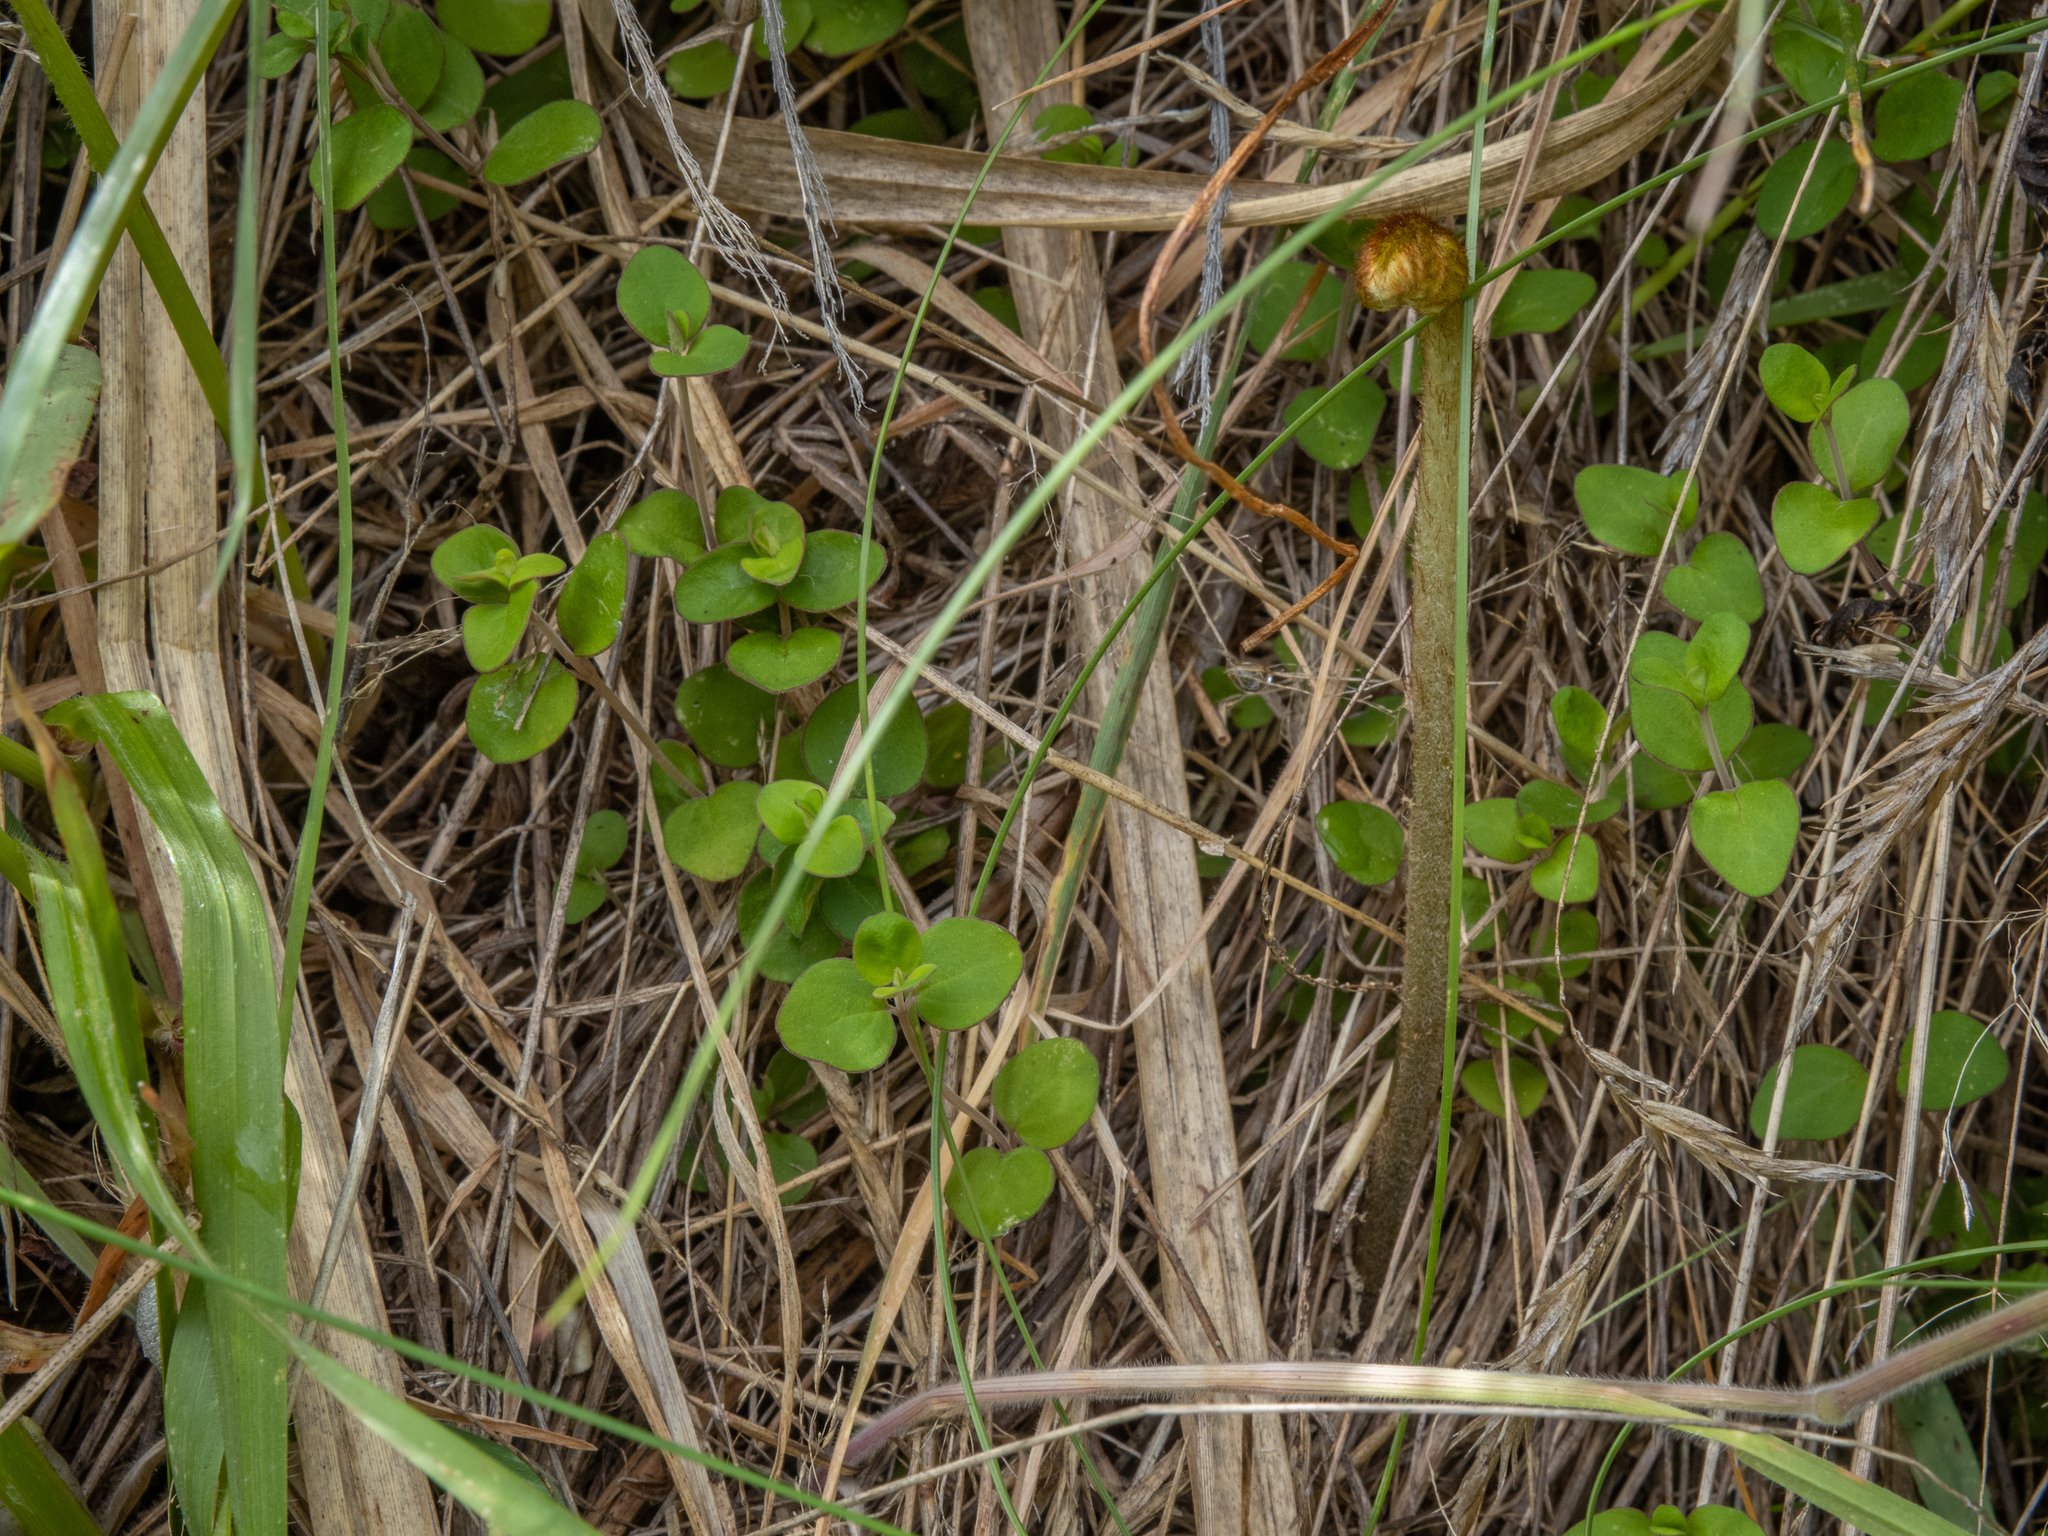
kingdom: Plantae
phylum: Tracheophyta
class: Magnoliopsida
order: Lamiales
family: Lamiaceae
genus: Mentha
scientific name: Mentha cunninghamii
